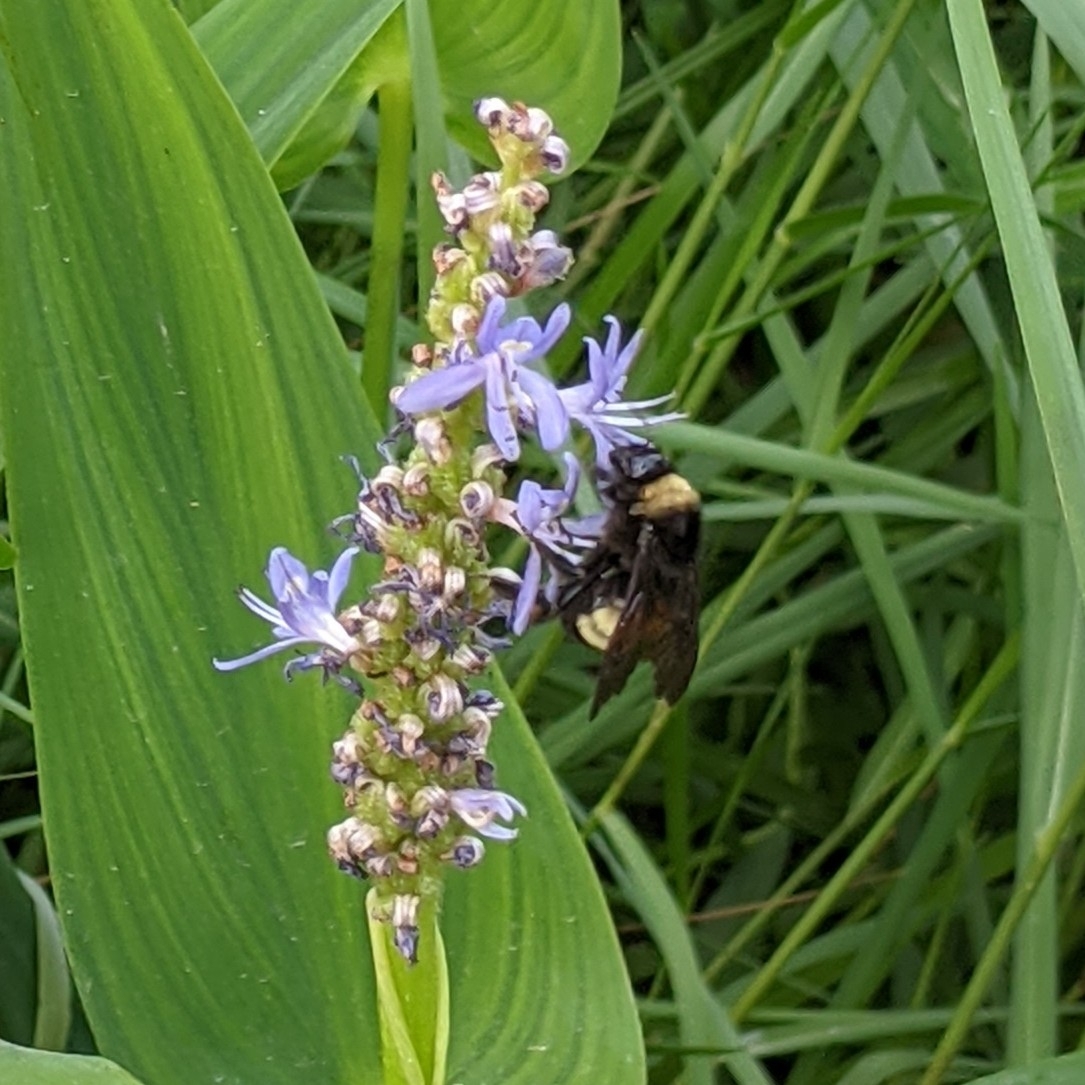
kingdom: Animalia
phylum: Arthropoda
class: Insecta
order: Hymenoptera
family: Apidae
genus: Bombus
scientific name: Bombus pensylvanicus
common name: Bumble bee
